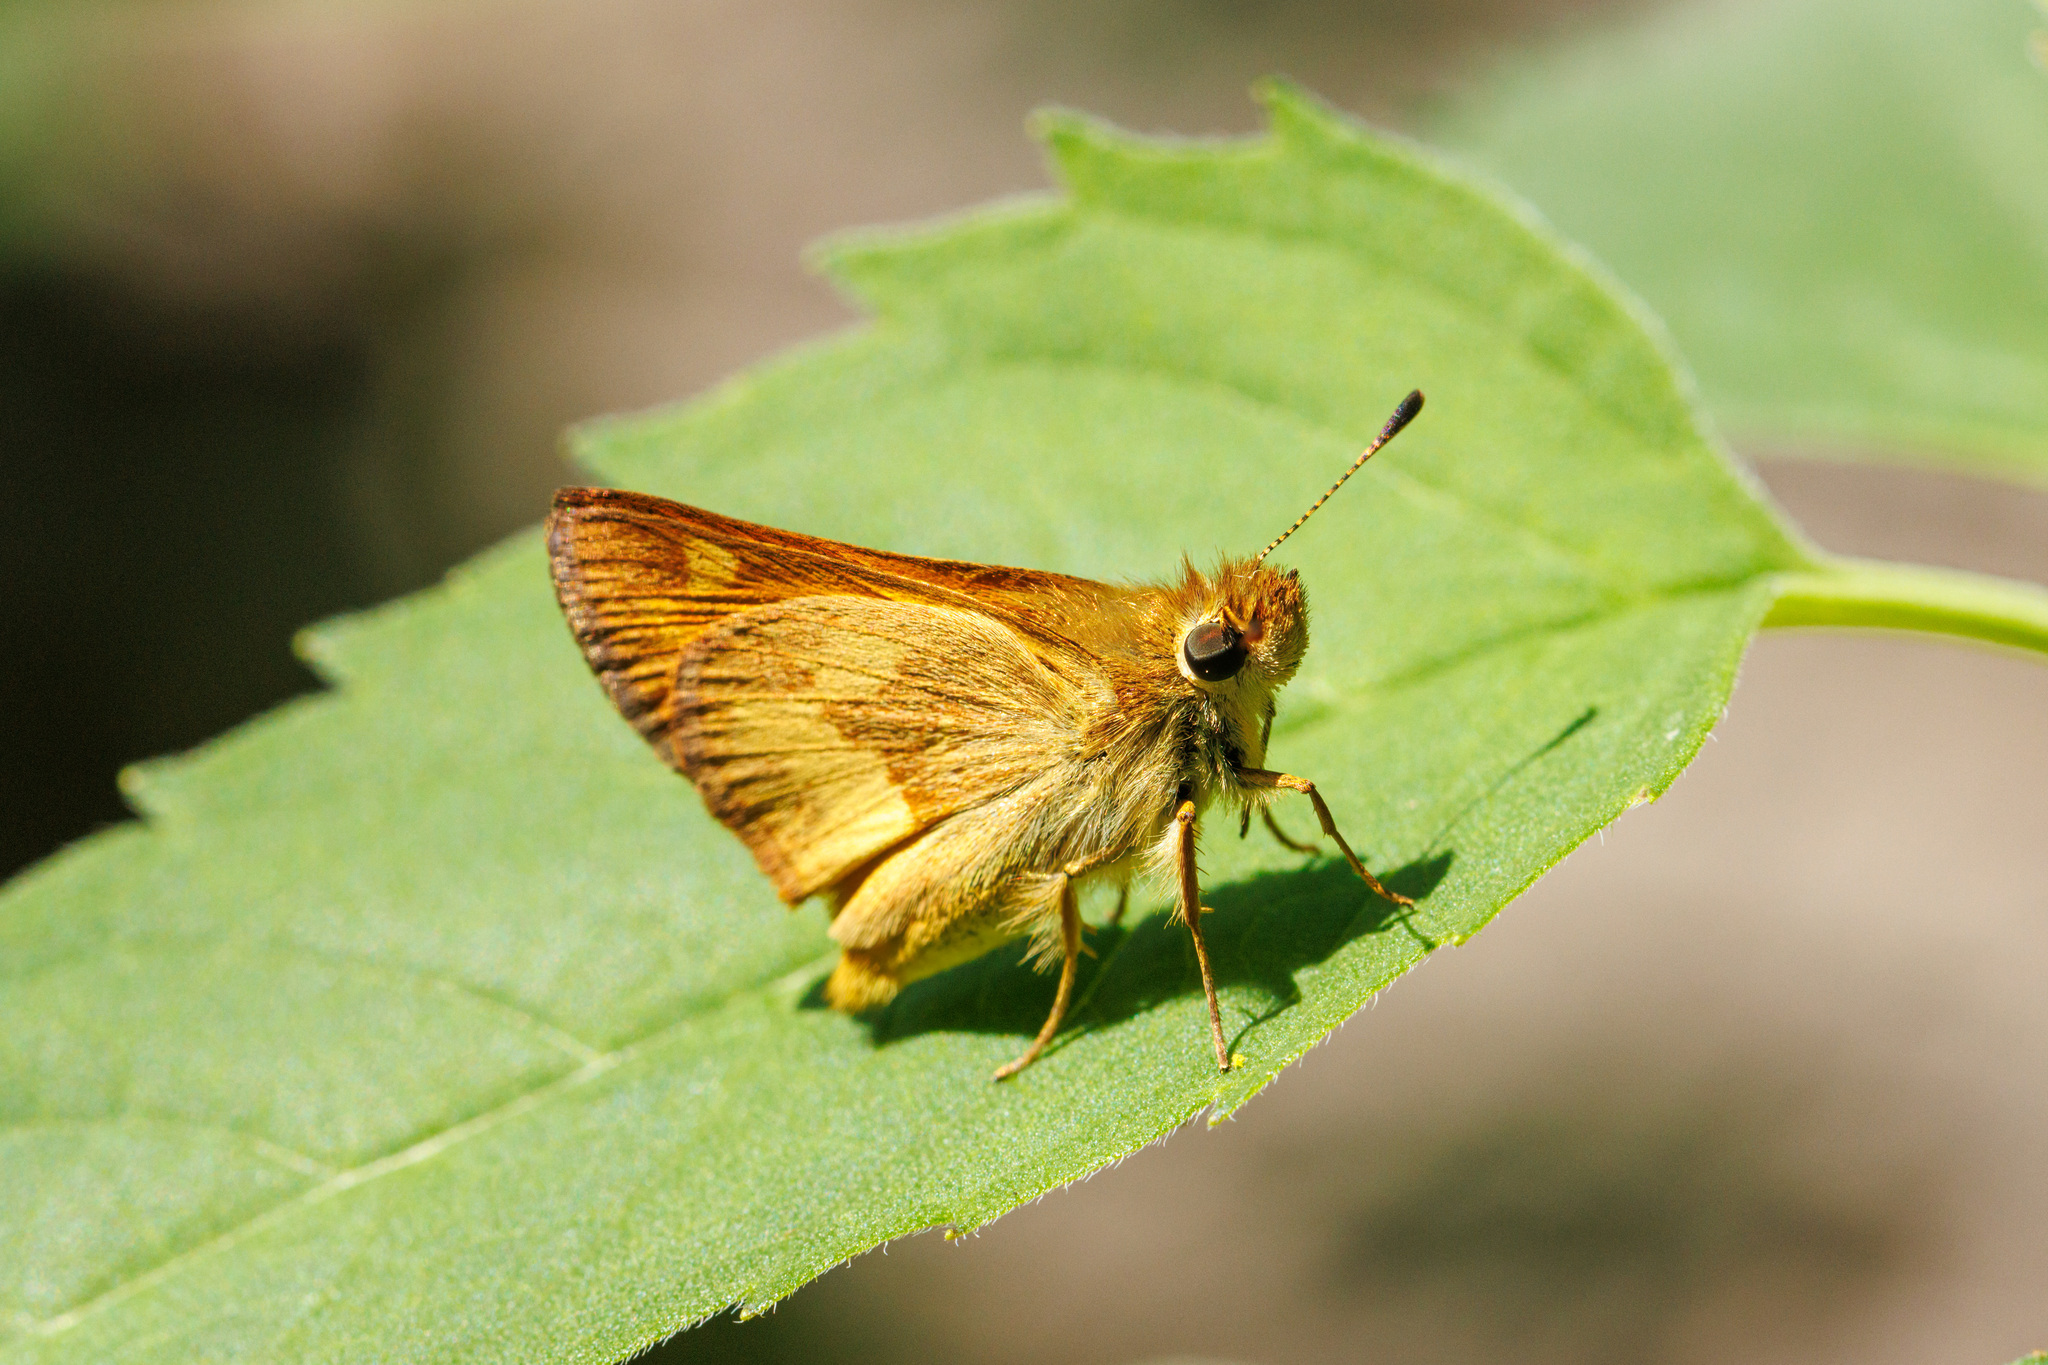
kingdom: Animalia
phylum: Arthropoda
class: Insecta
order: Lepidoptera
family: Hesperiidae
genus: Ochlodes
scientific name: Ochlodes sylvanoides
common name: Woodland skipper
